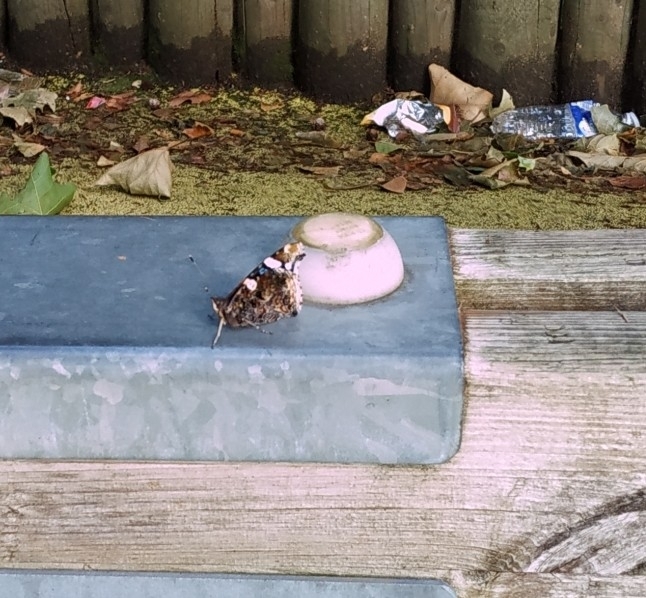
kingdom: Animalia
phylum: Arthropoda
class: Insecta
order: Lepidoptera
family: Nymphalidae
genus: Vanessa
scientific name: Vanessa atalanta
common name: Red admiral
